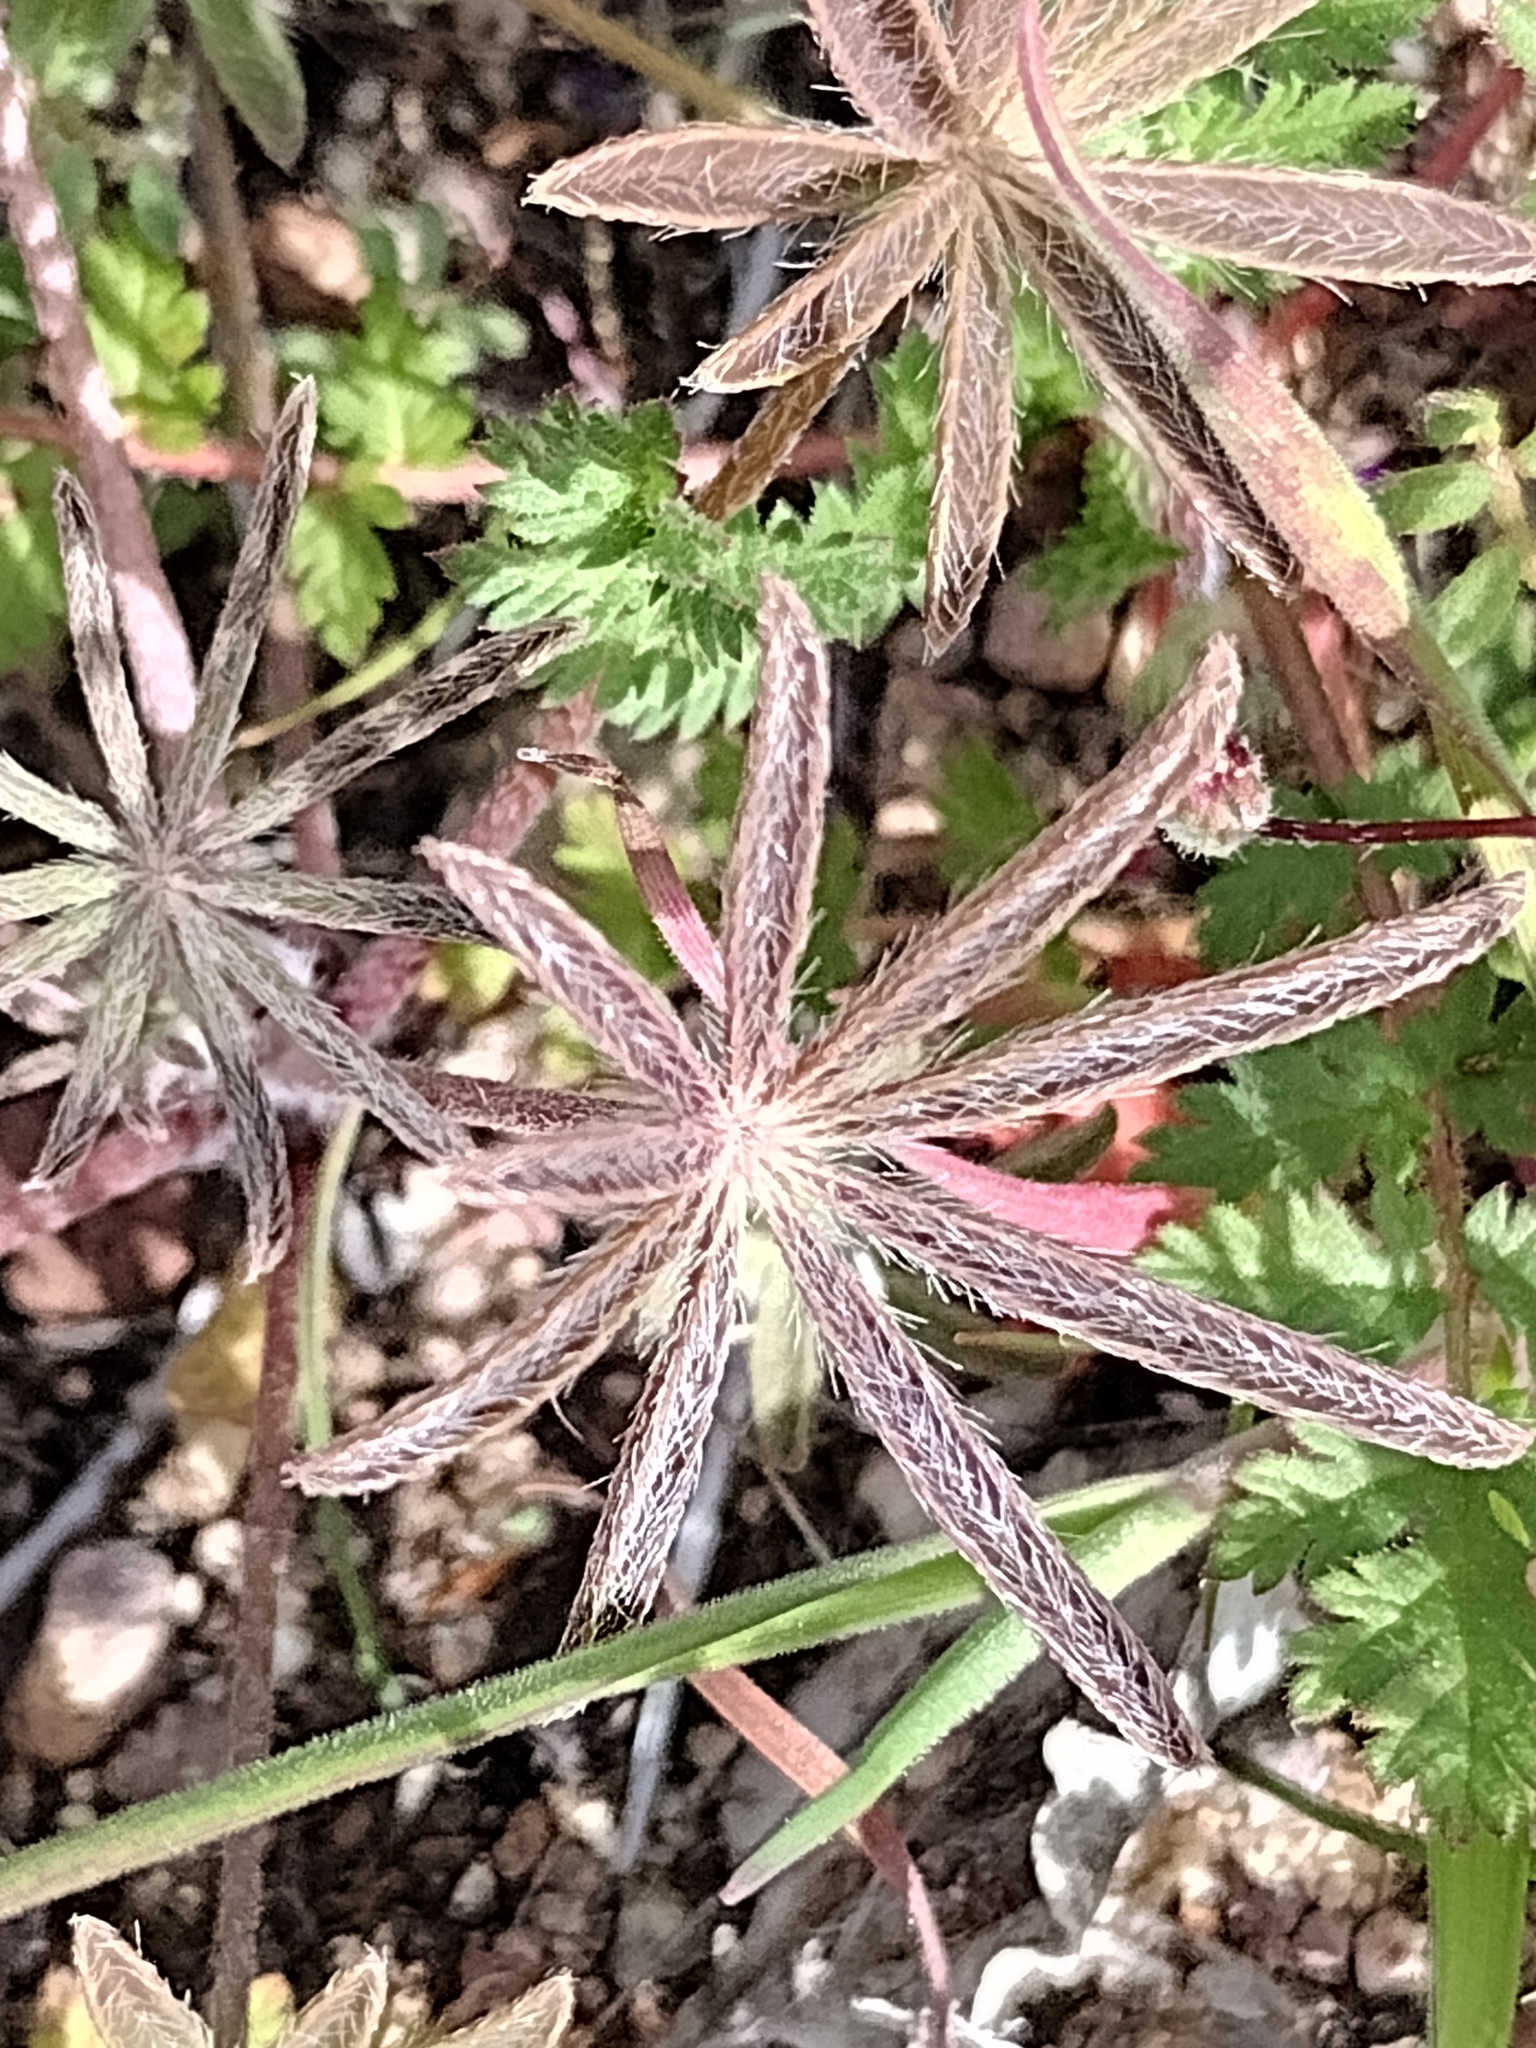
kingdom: Plantae
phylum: Tracheophyta
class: Magnoliopsida
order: Fabales
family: Fabaceae
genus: Lupinus
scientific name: Lupinus sparsiflorus
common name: Coulter's lupine
